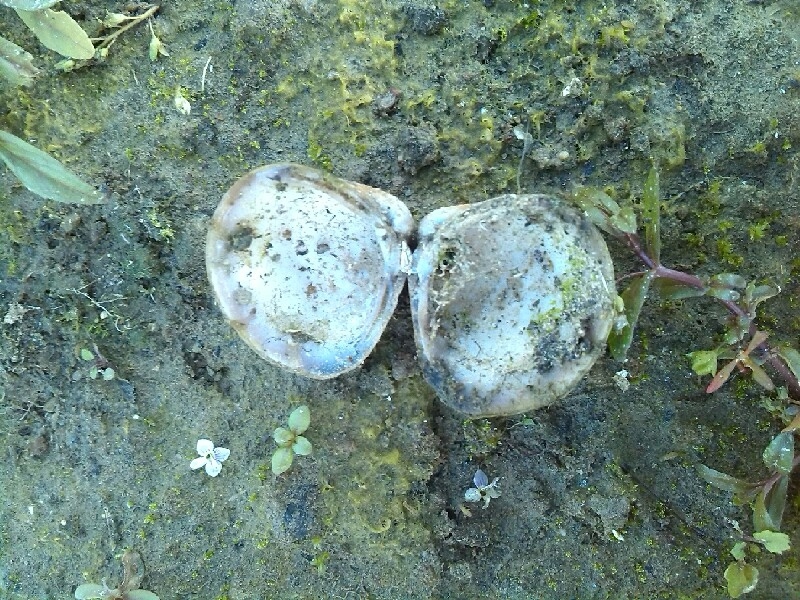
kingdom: Animalia
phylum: Mollusca
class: Bivalvia
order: Venerida
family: Cyrenidae
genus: Corbicula
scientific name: Corbicula fluminea
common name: Asian clam
